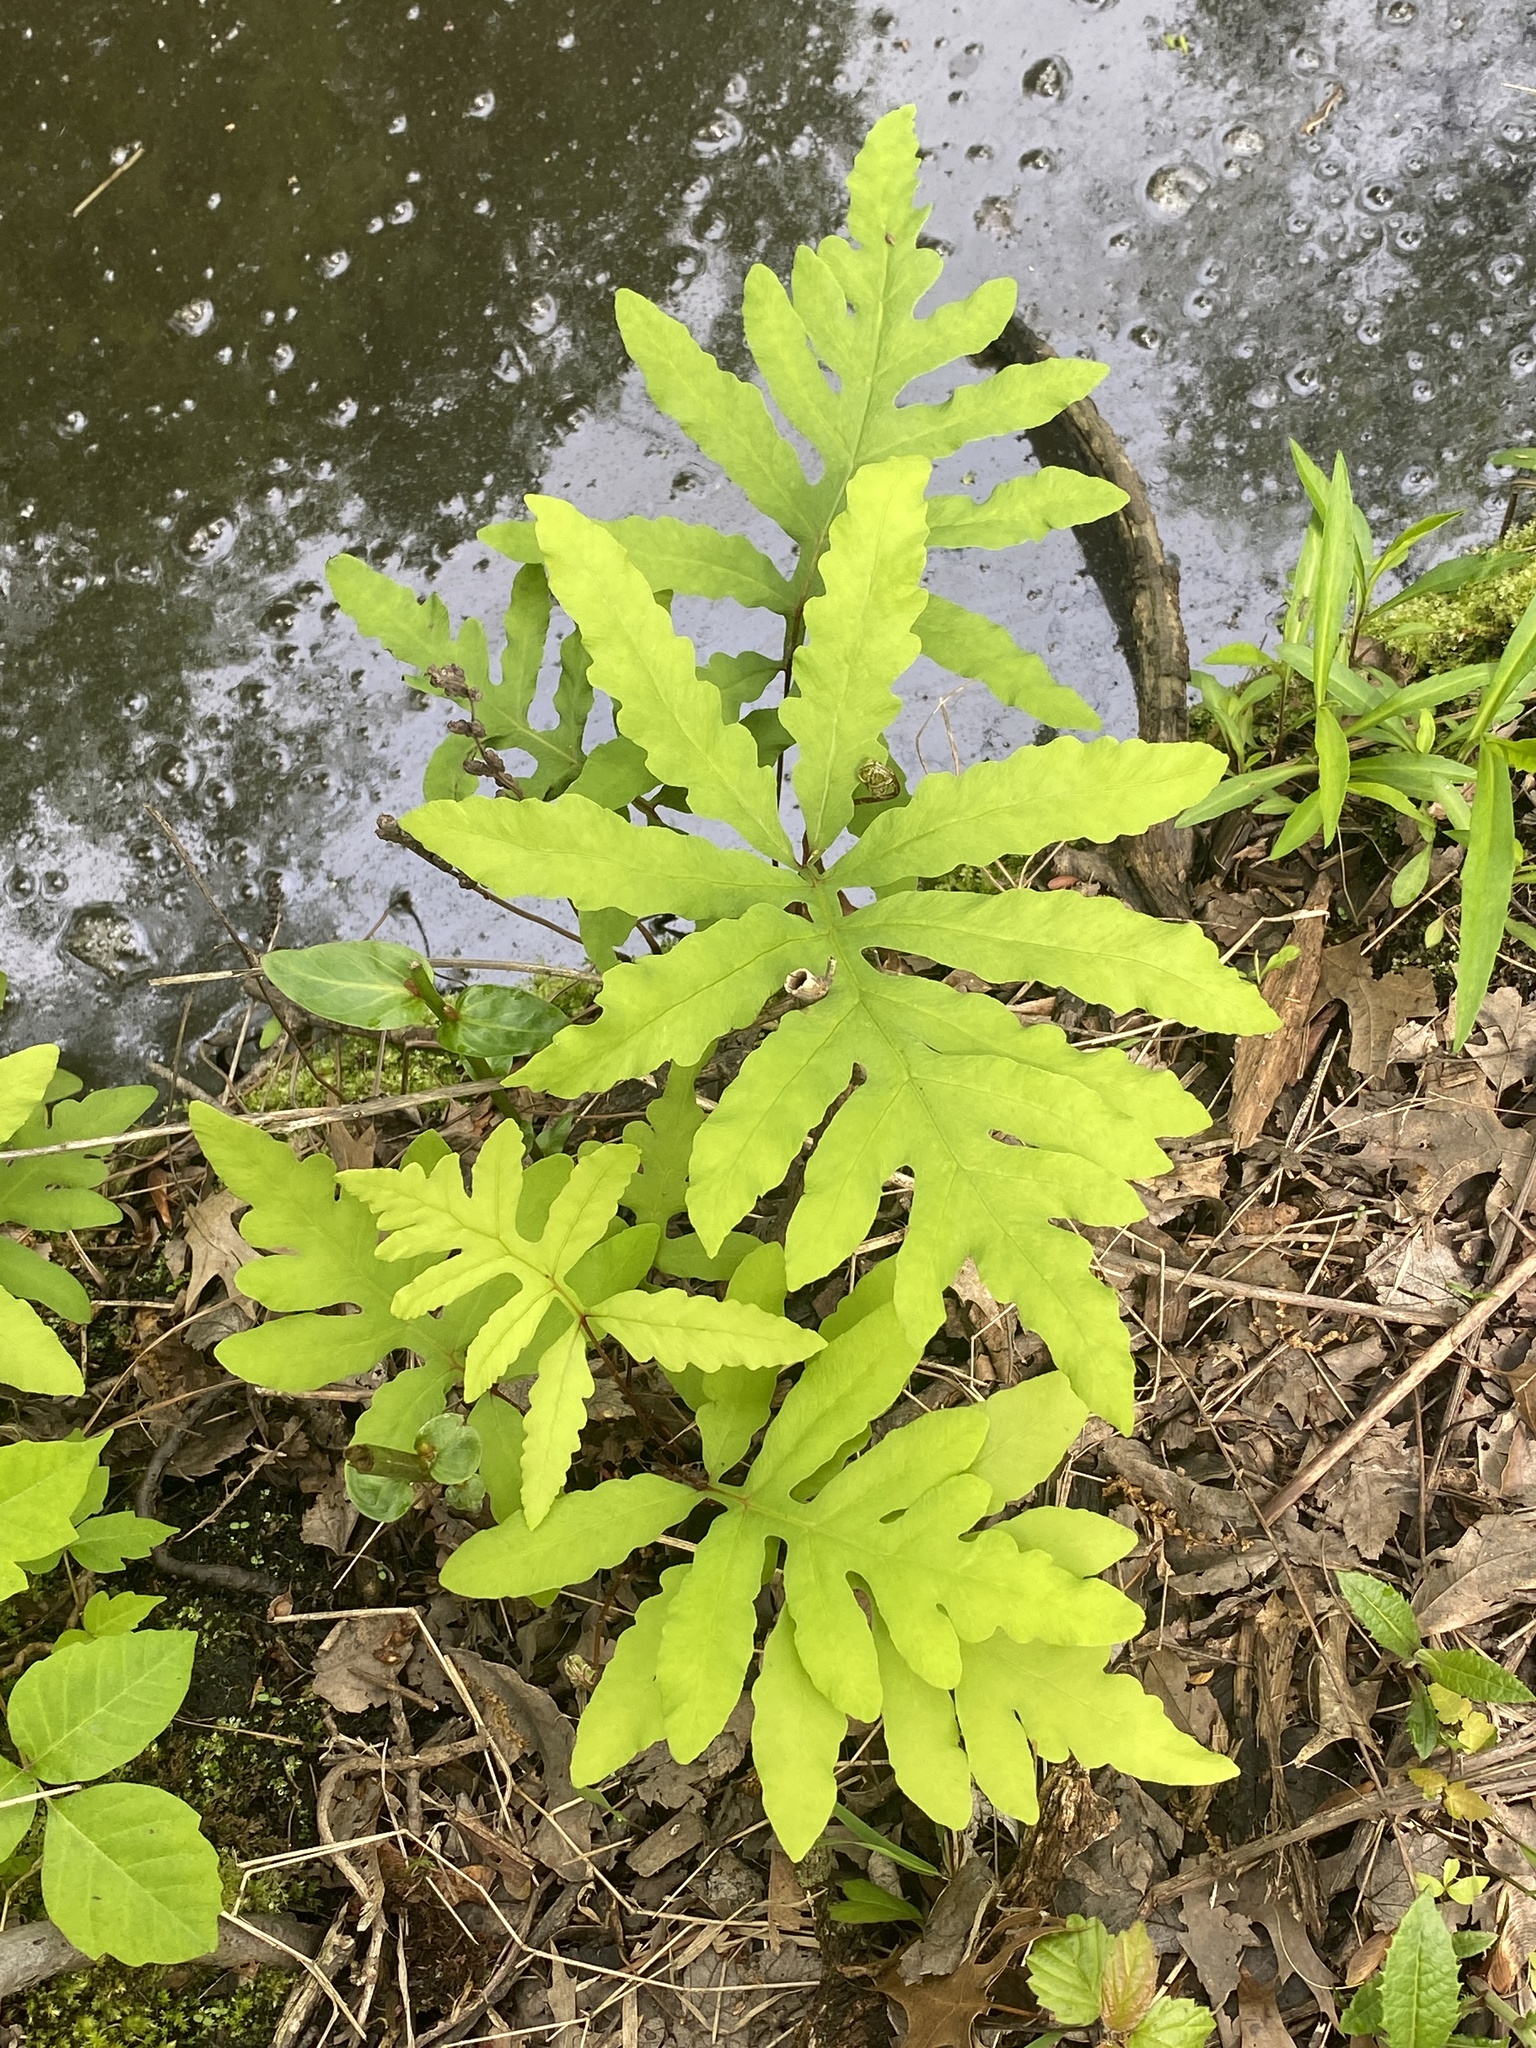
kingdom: Plantae
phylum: Tracheophyta
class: Polypodiopsida
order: Polypodiales
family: Onocleaceae
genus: Onoclea
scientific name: Onoclea sensibilis
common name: Sensitive fern
